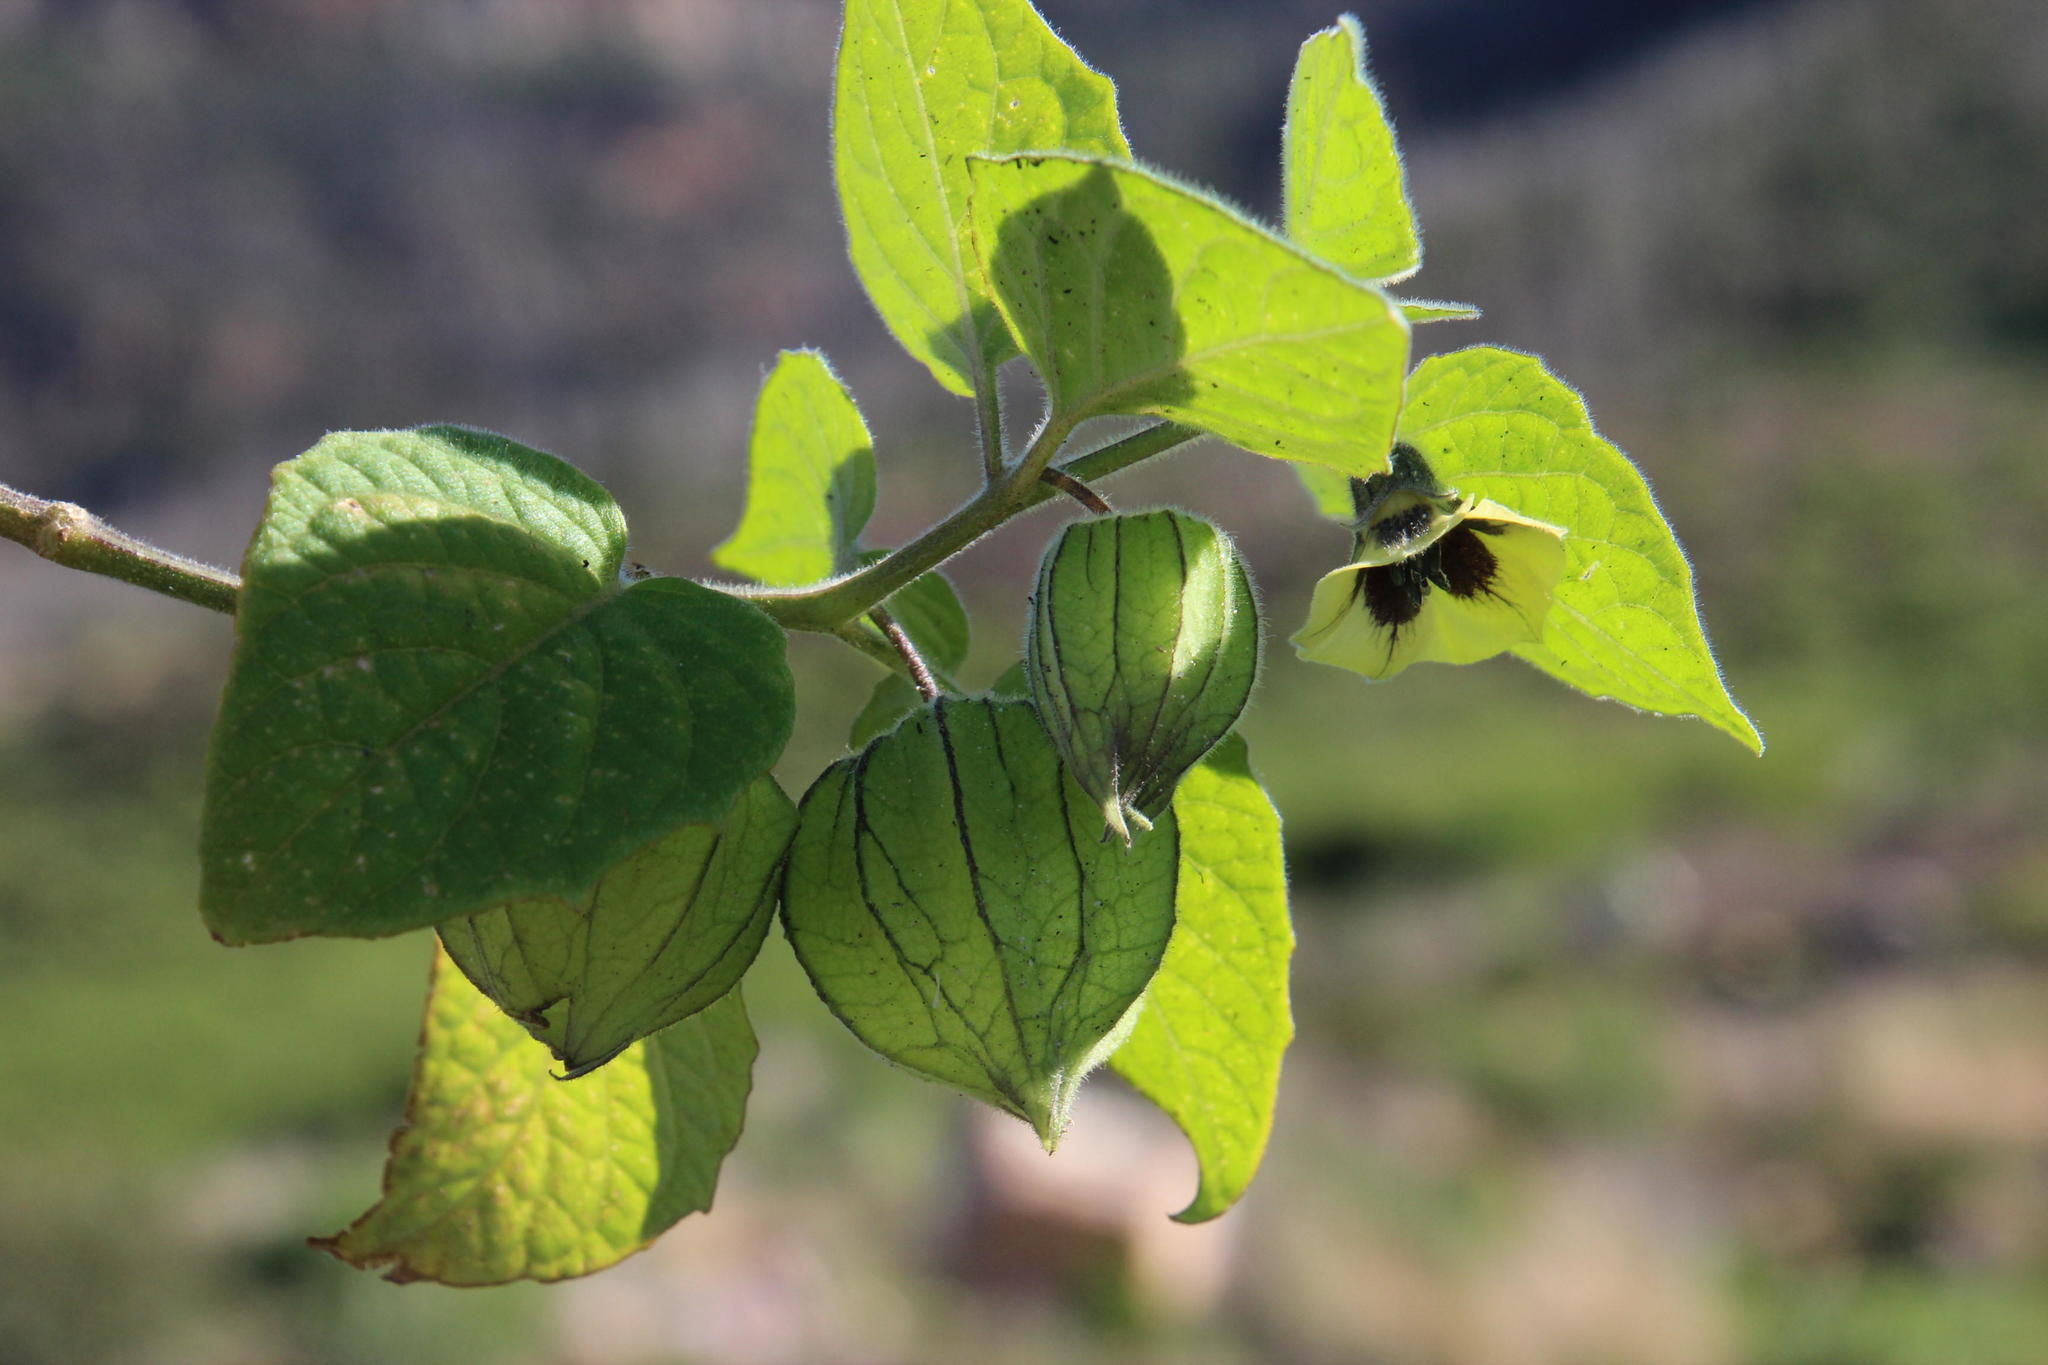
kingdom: Plantae
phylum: Tracheophyta
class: Magnoliopsida
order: Solanales
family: Solanaceae
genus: Physalis
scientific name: Physalis peruviana
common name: Cape-gooseberry
